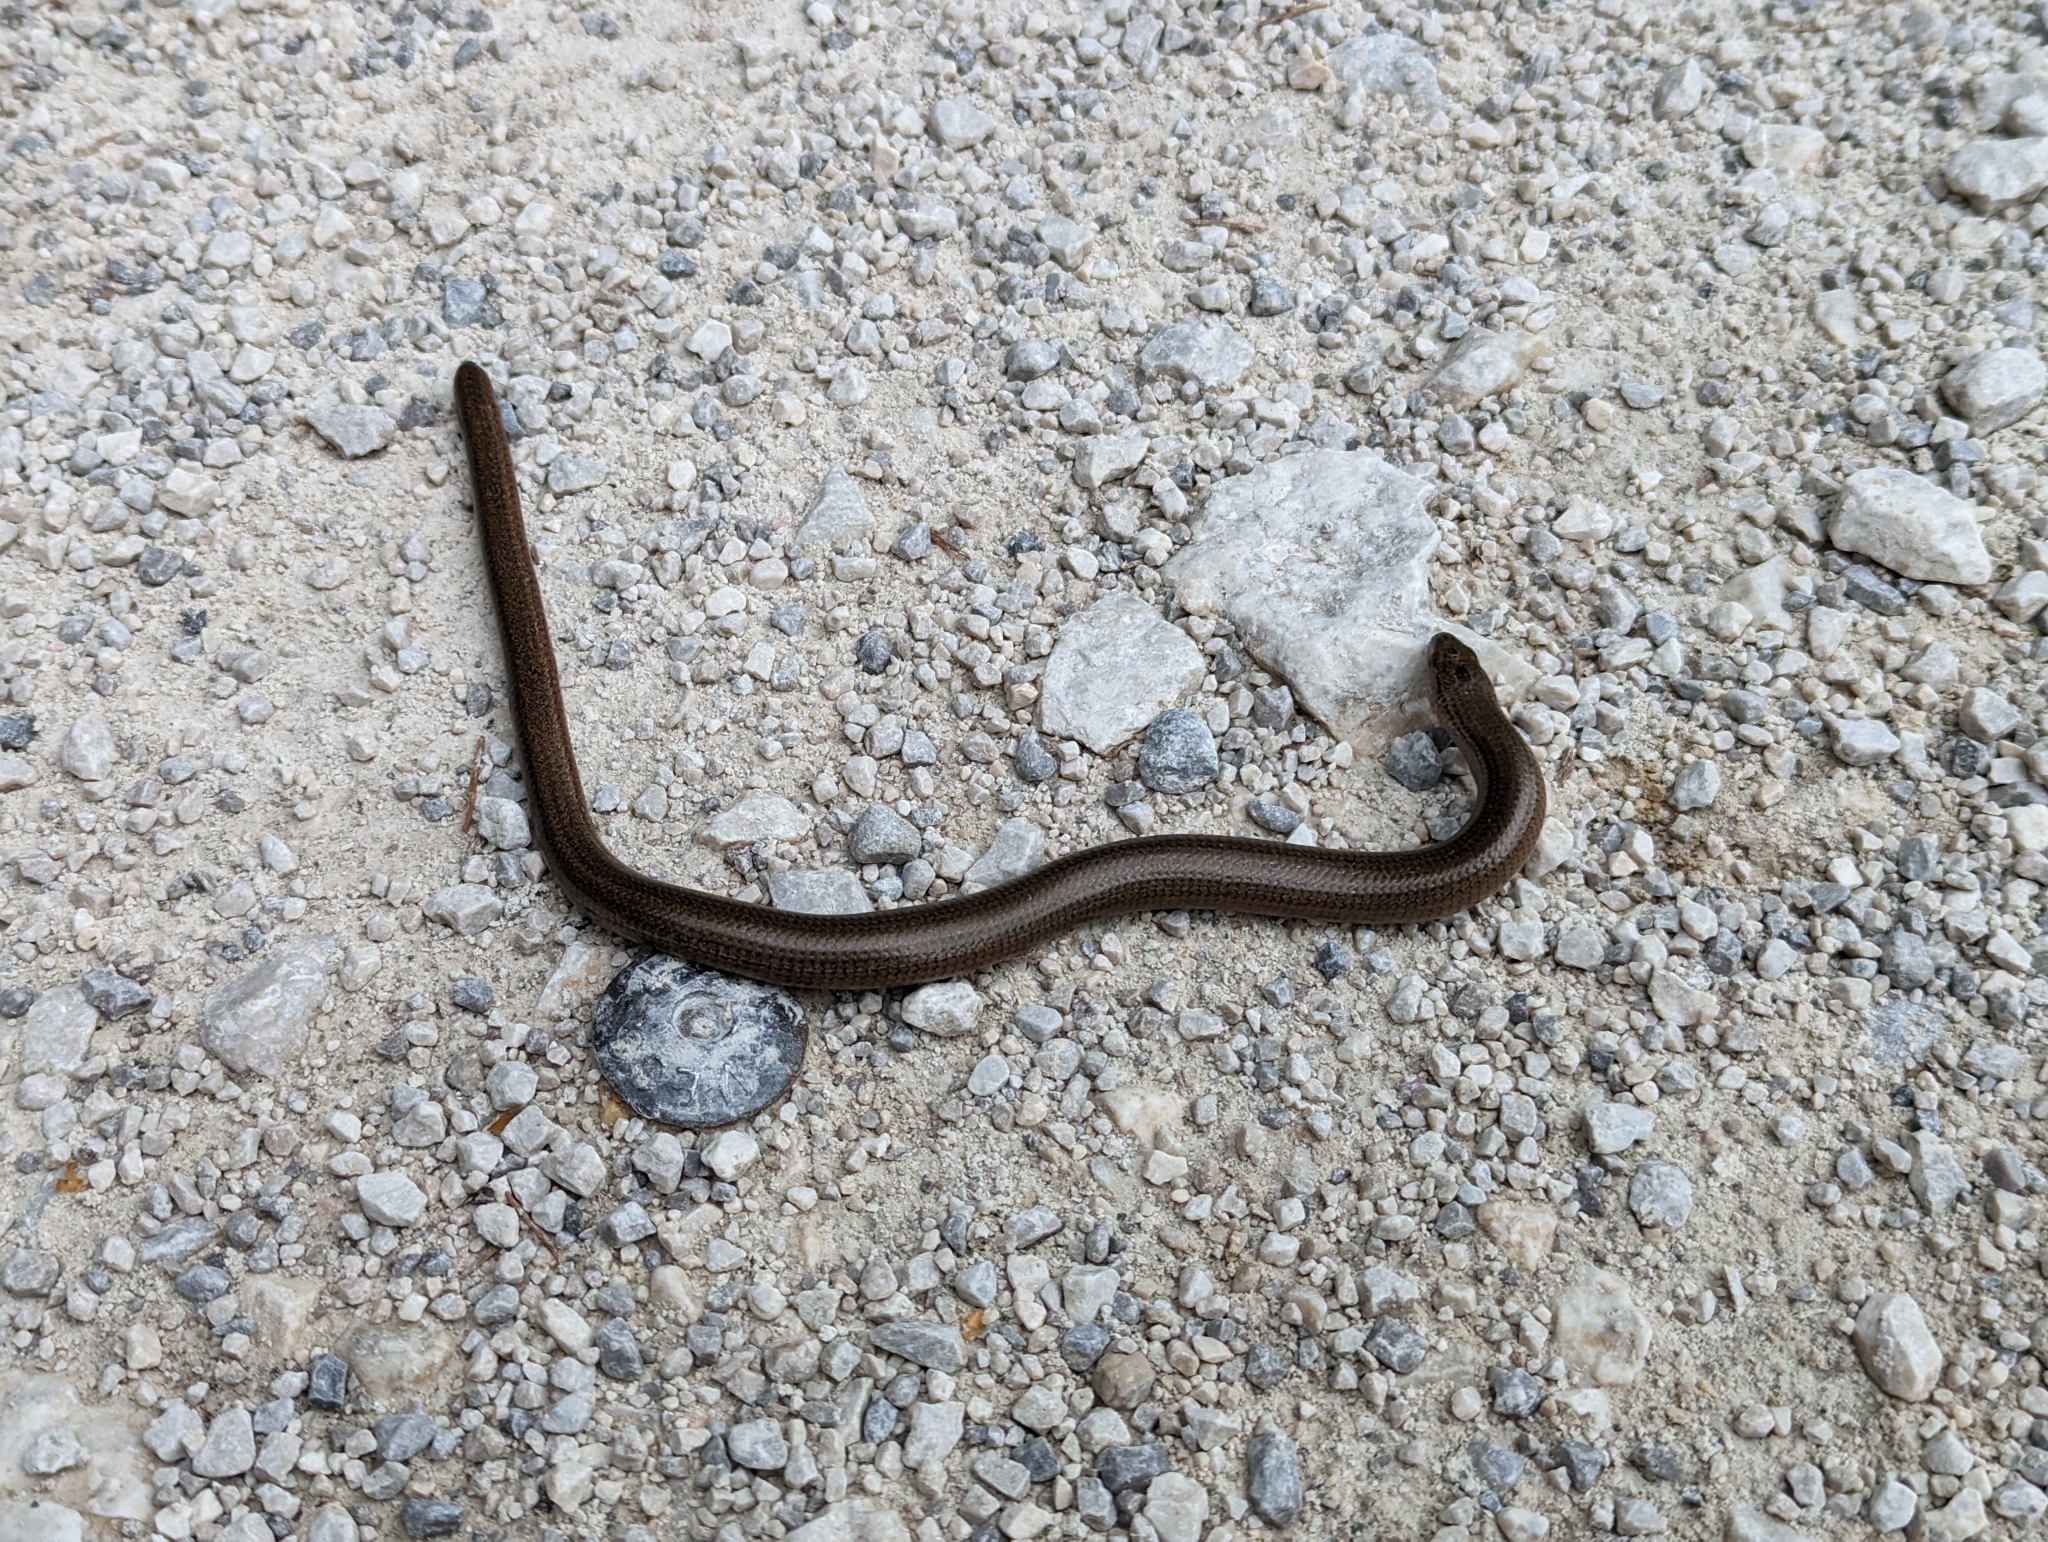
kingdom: Animalia
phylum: Chordata
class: Squamata
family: Anguidae
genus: Anguis
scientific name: Anguis fragilis
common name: Slow worm
